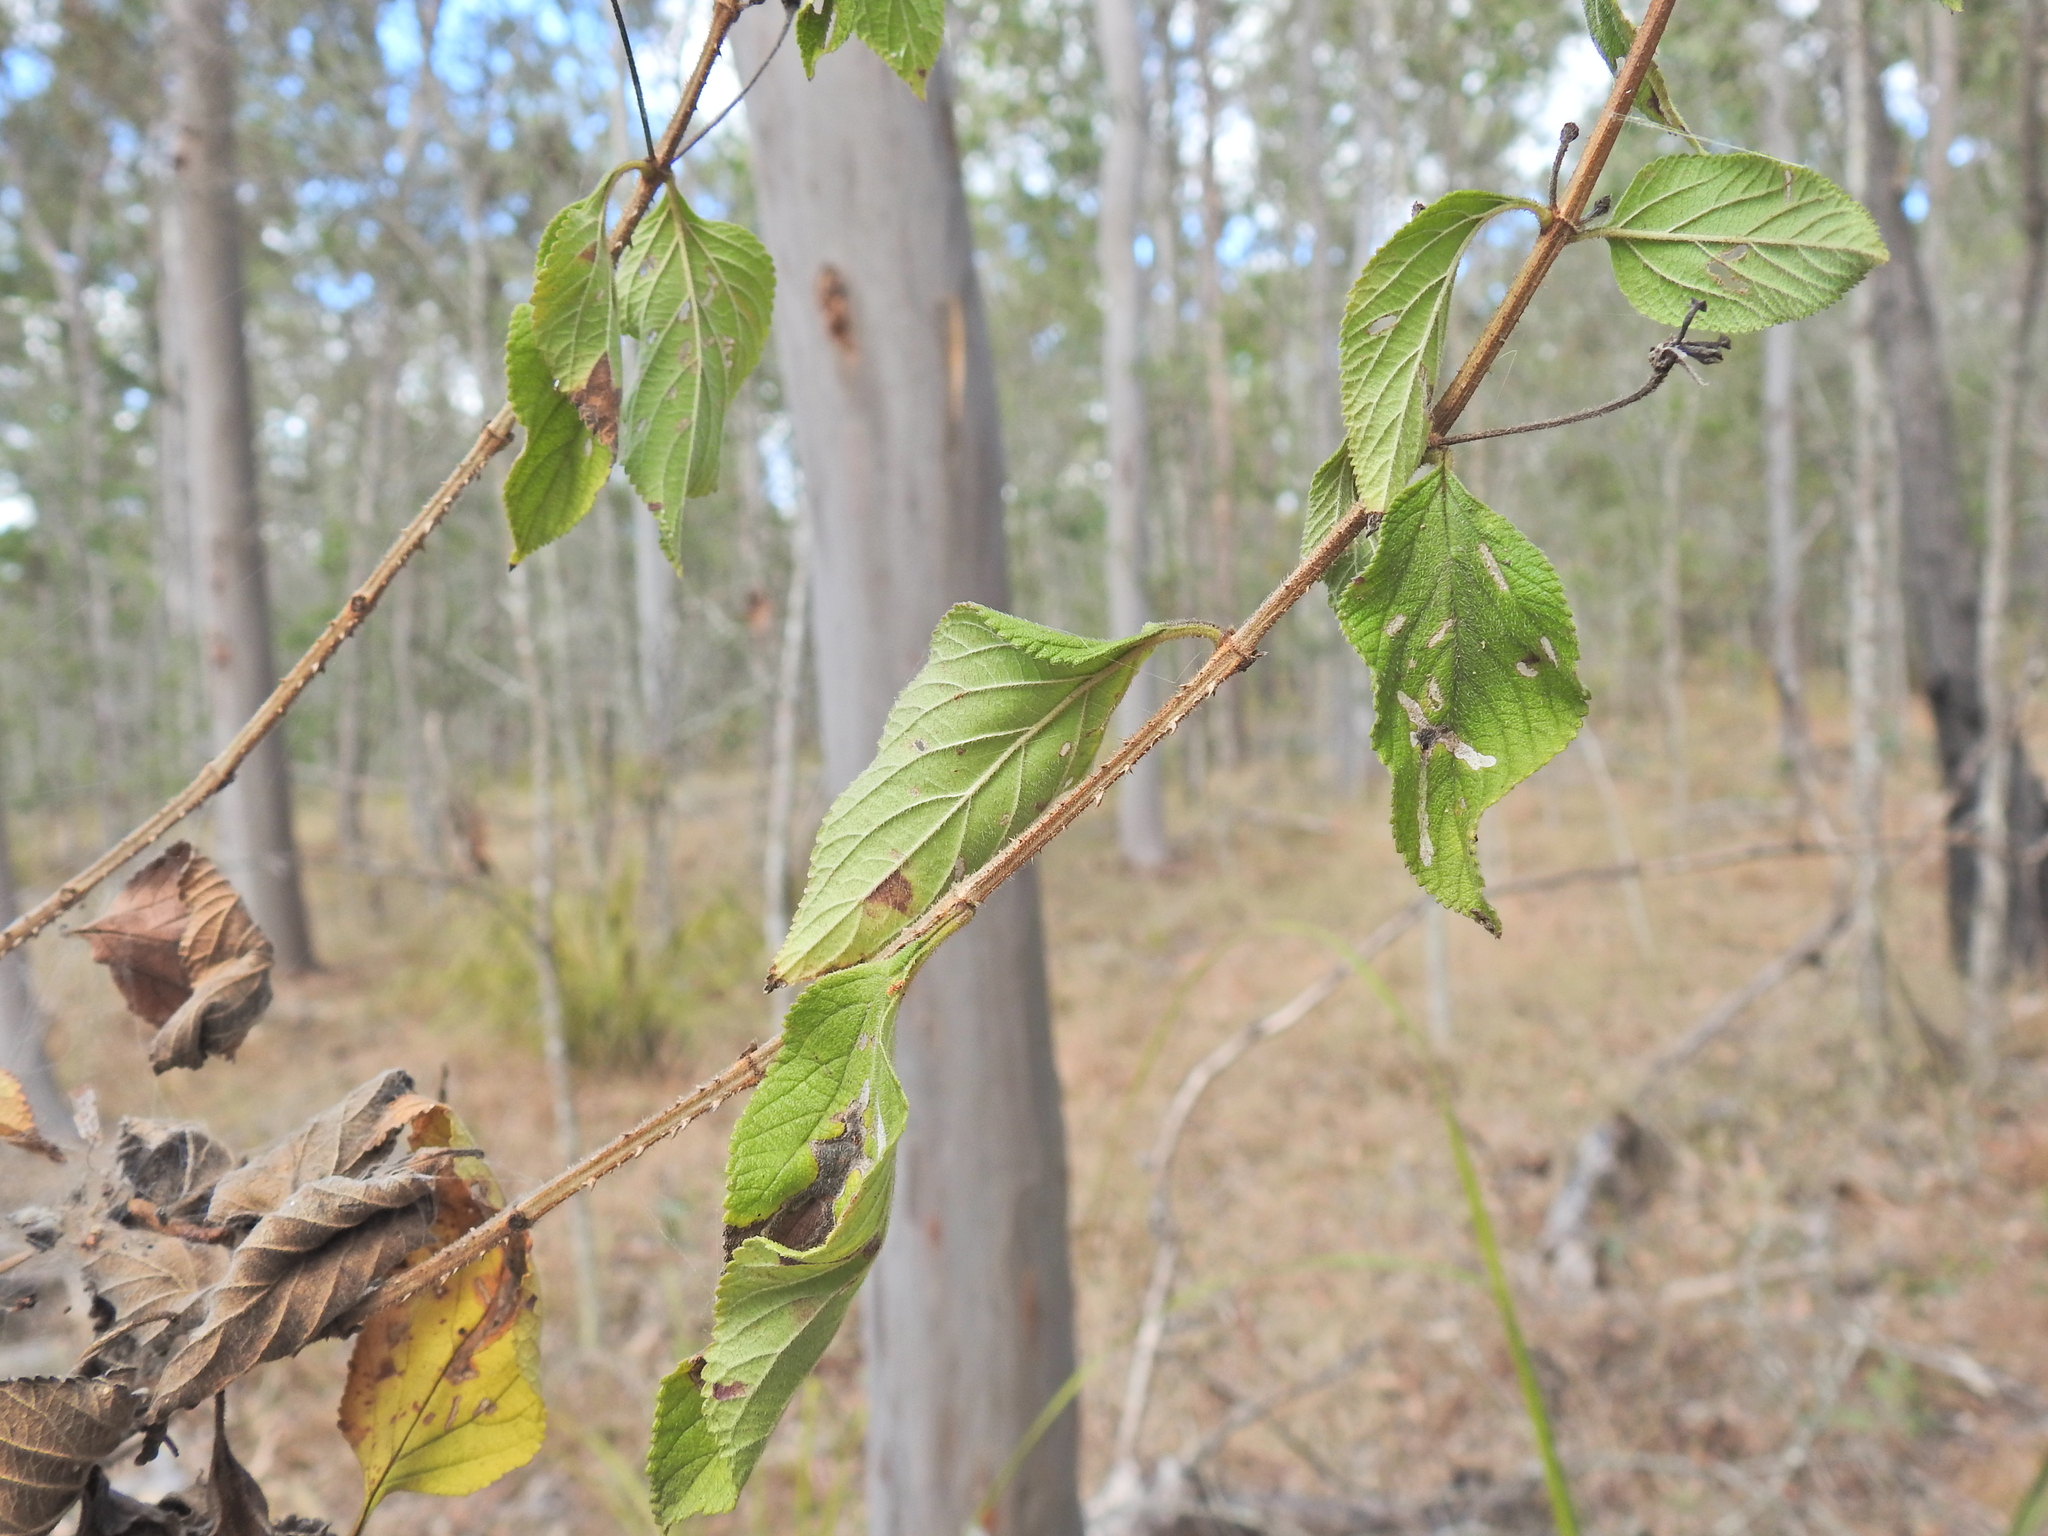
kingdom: Plantae
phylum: Tracheophyta
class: Magnoliopsida
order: Lamiales
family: Verbenaceae
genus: Lantana
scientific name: Lantana camara
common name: Lantana
